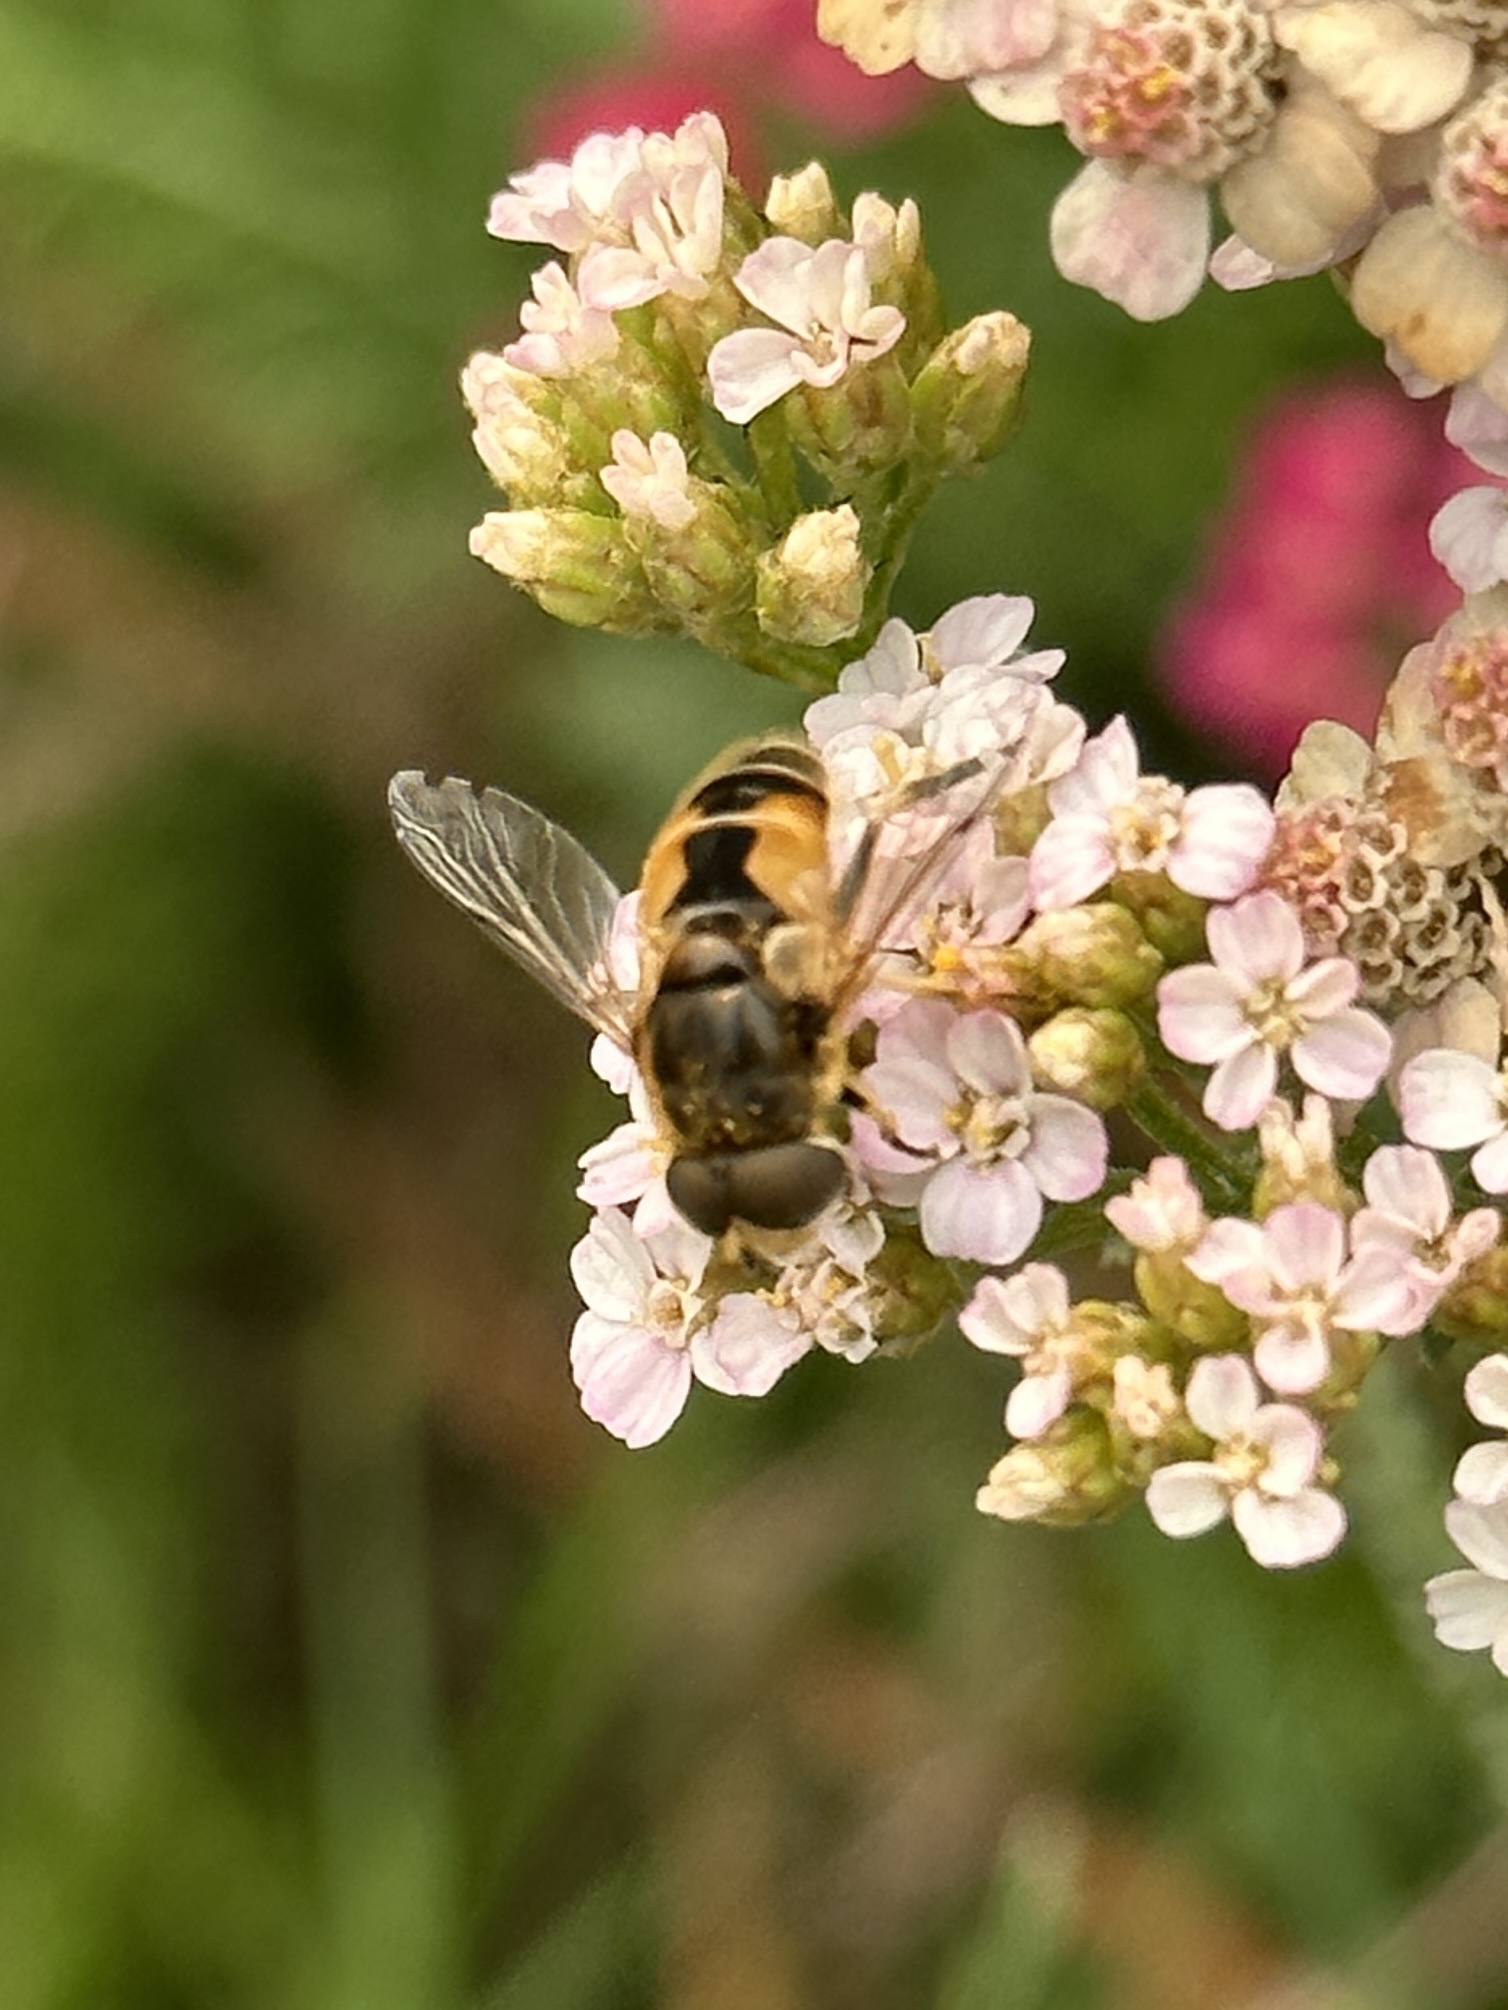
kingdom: Animalia
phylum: Arthropoda
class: Insecta
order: Diptera
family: Syrphidae
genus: Eristalis
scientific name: Eristalis arbustorum
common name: Hover fly
